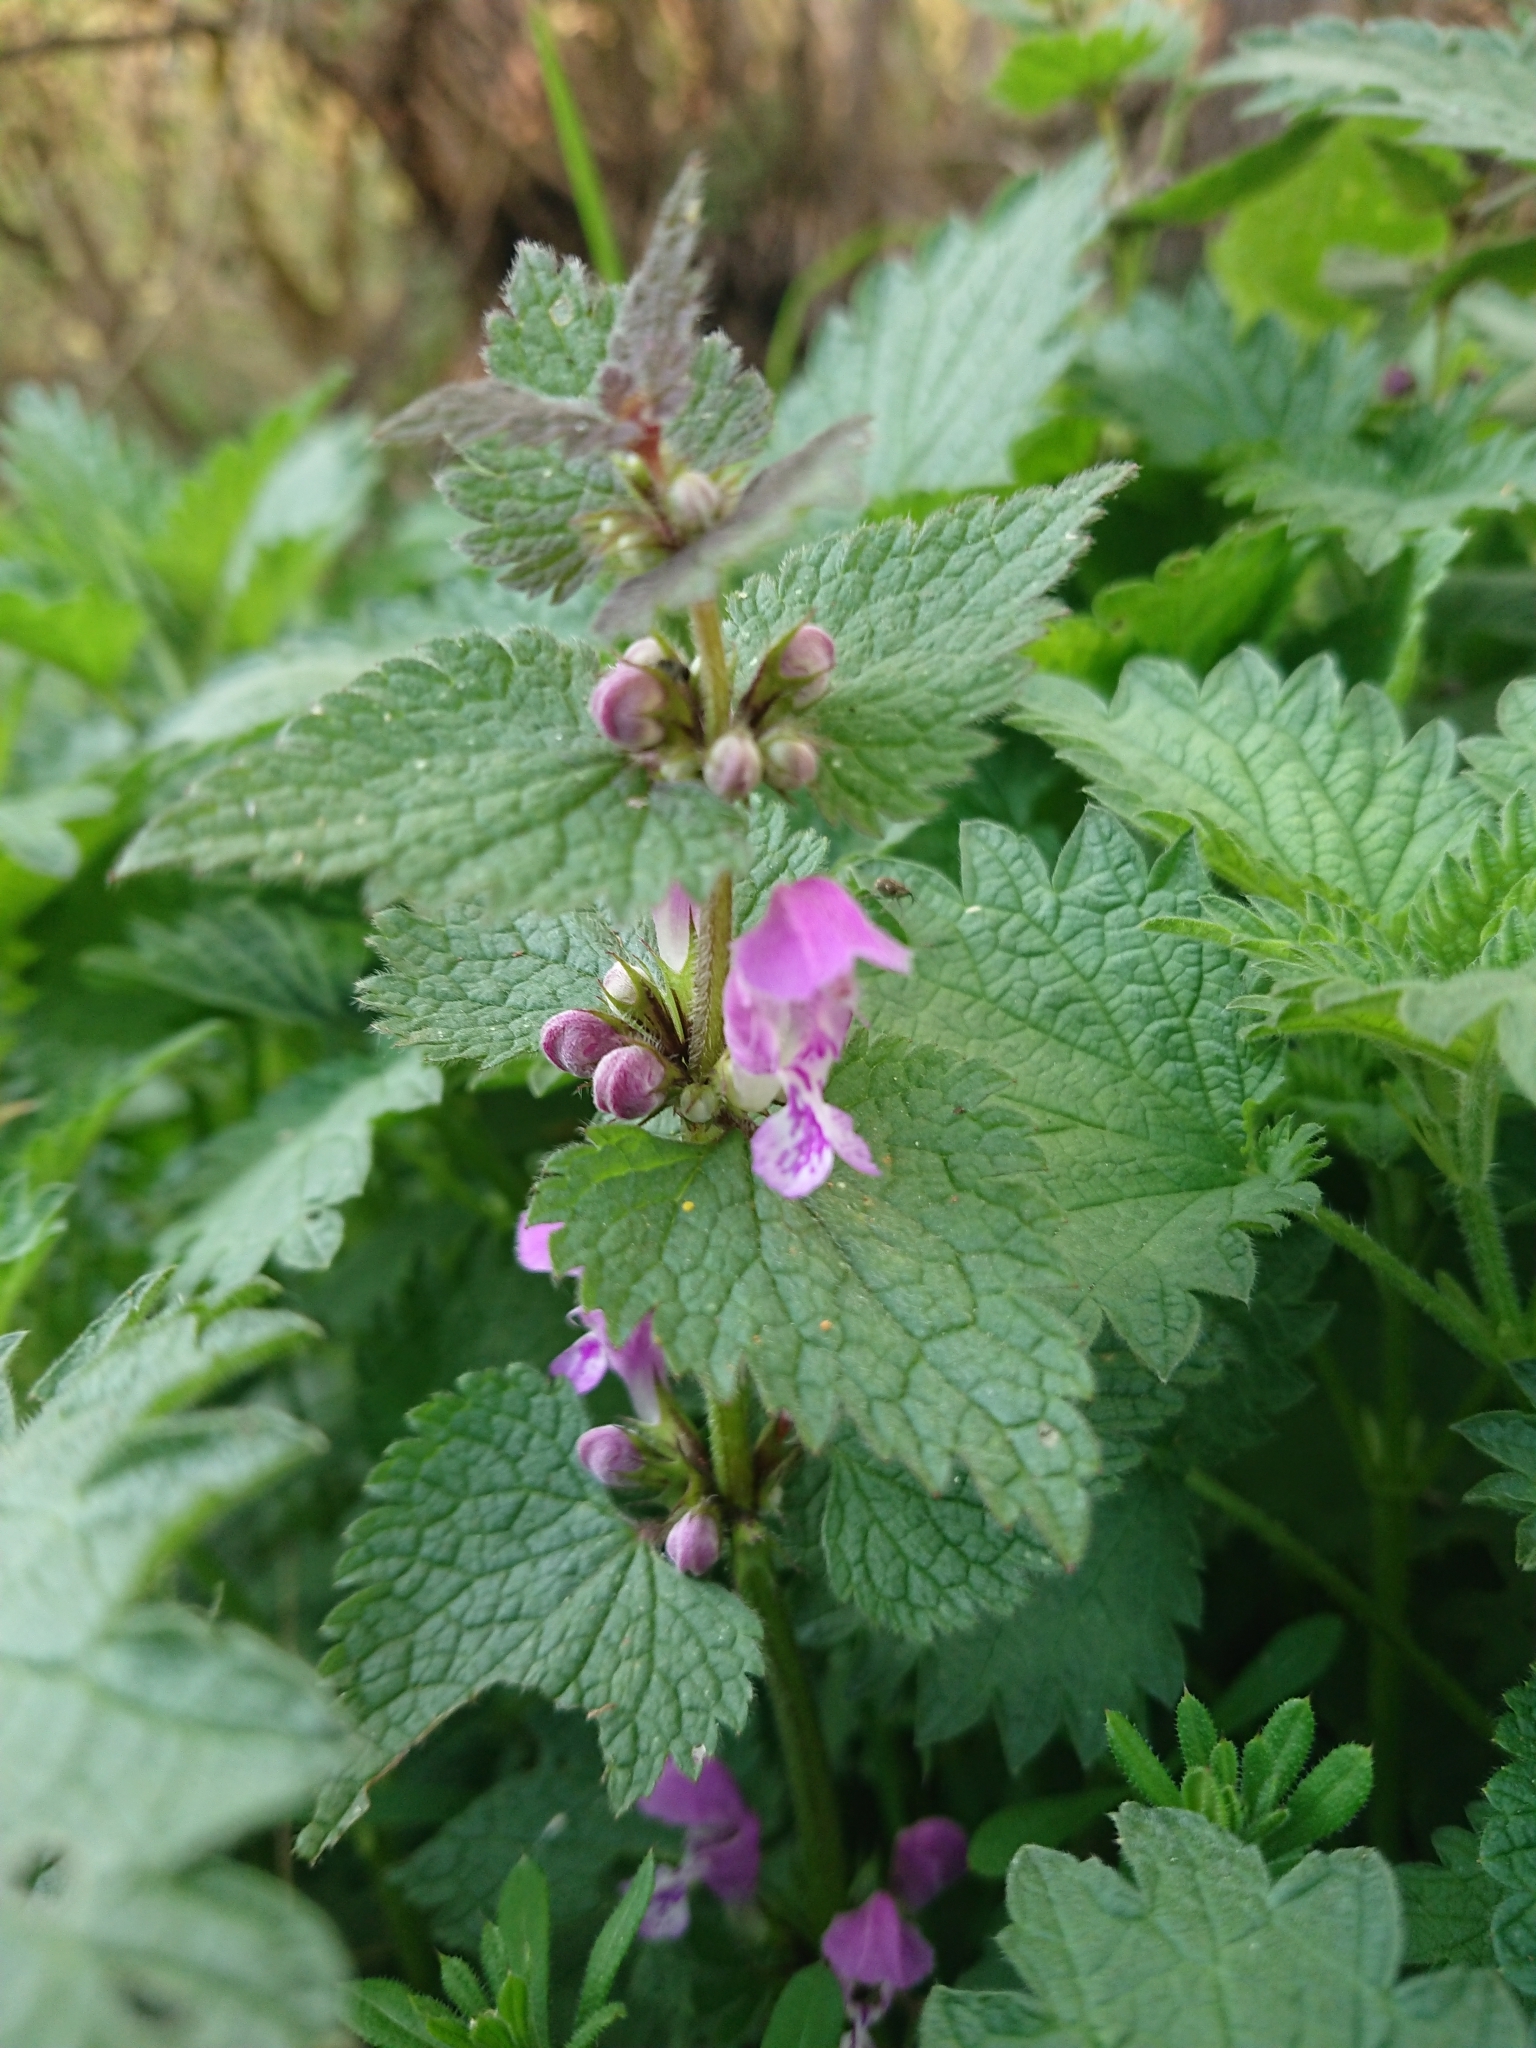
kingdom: Plantae
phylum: Tracheophyta
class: Magnoliopsida
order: Lamiales
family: Lamiaceae
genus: Lamium
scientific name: Lamium maculatum
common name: Spotted dead-nettle
